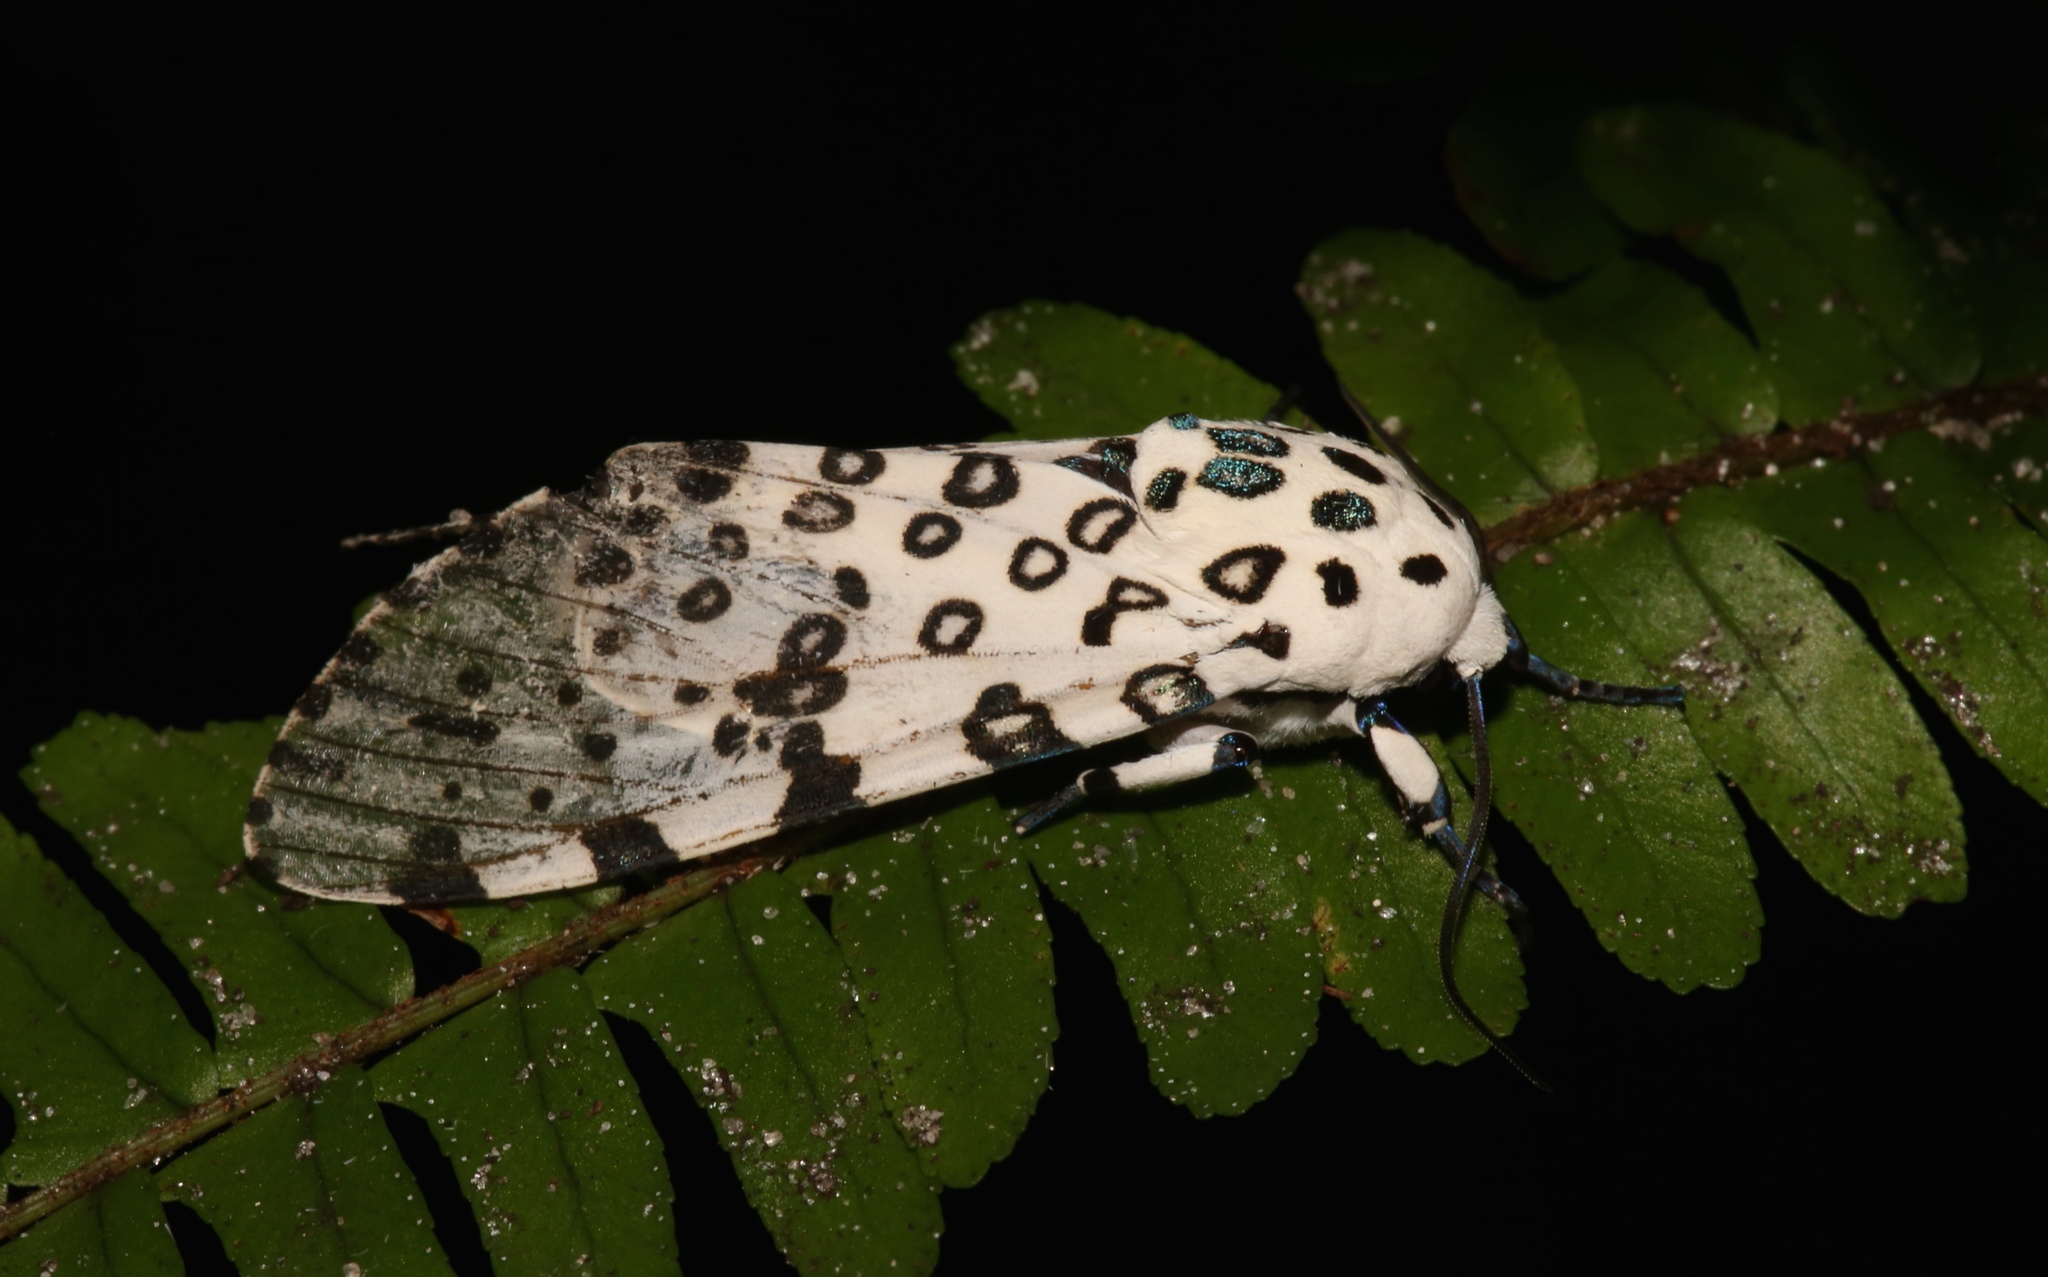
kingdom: Animalia
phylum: Arthropoda
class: Insecta
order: Lepidoptera
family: Erebidae
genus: Hypercompe
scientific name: Hypercompe scribonia
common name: Giant leopard moth
